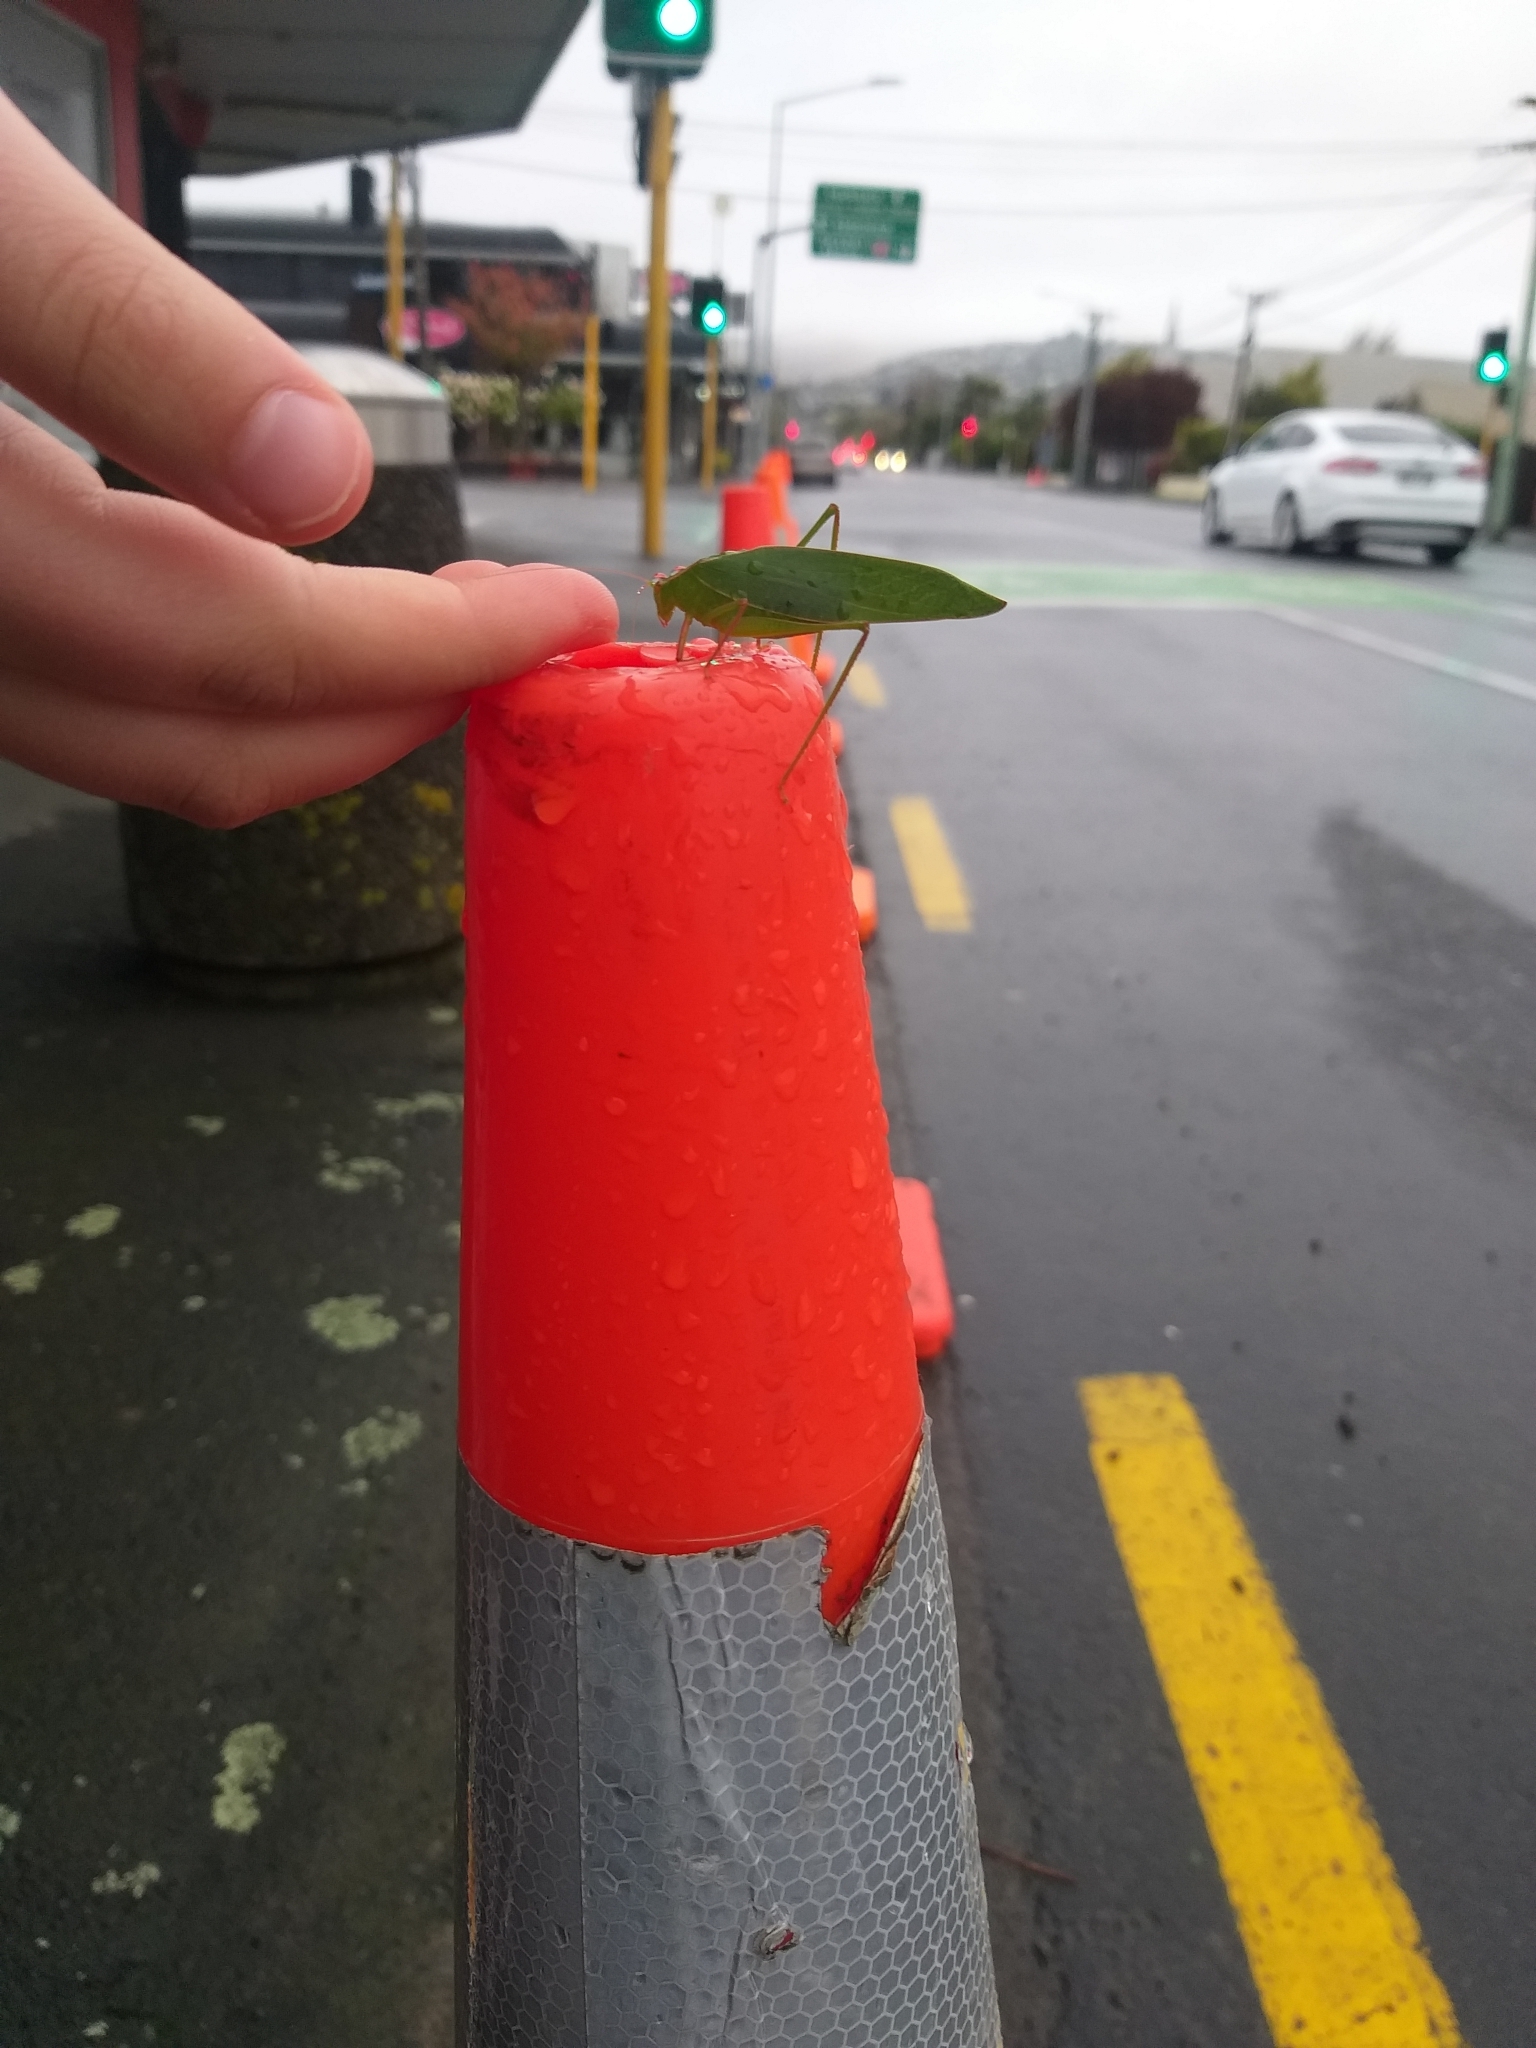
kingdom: Animalia
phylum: Arthropoda
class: Insecta
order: Orthoptera
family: Tettigoniidae
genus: Caedicia
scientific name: Caedicia simplex
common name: Common garden katydid
